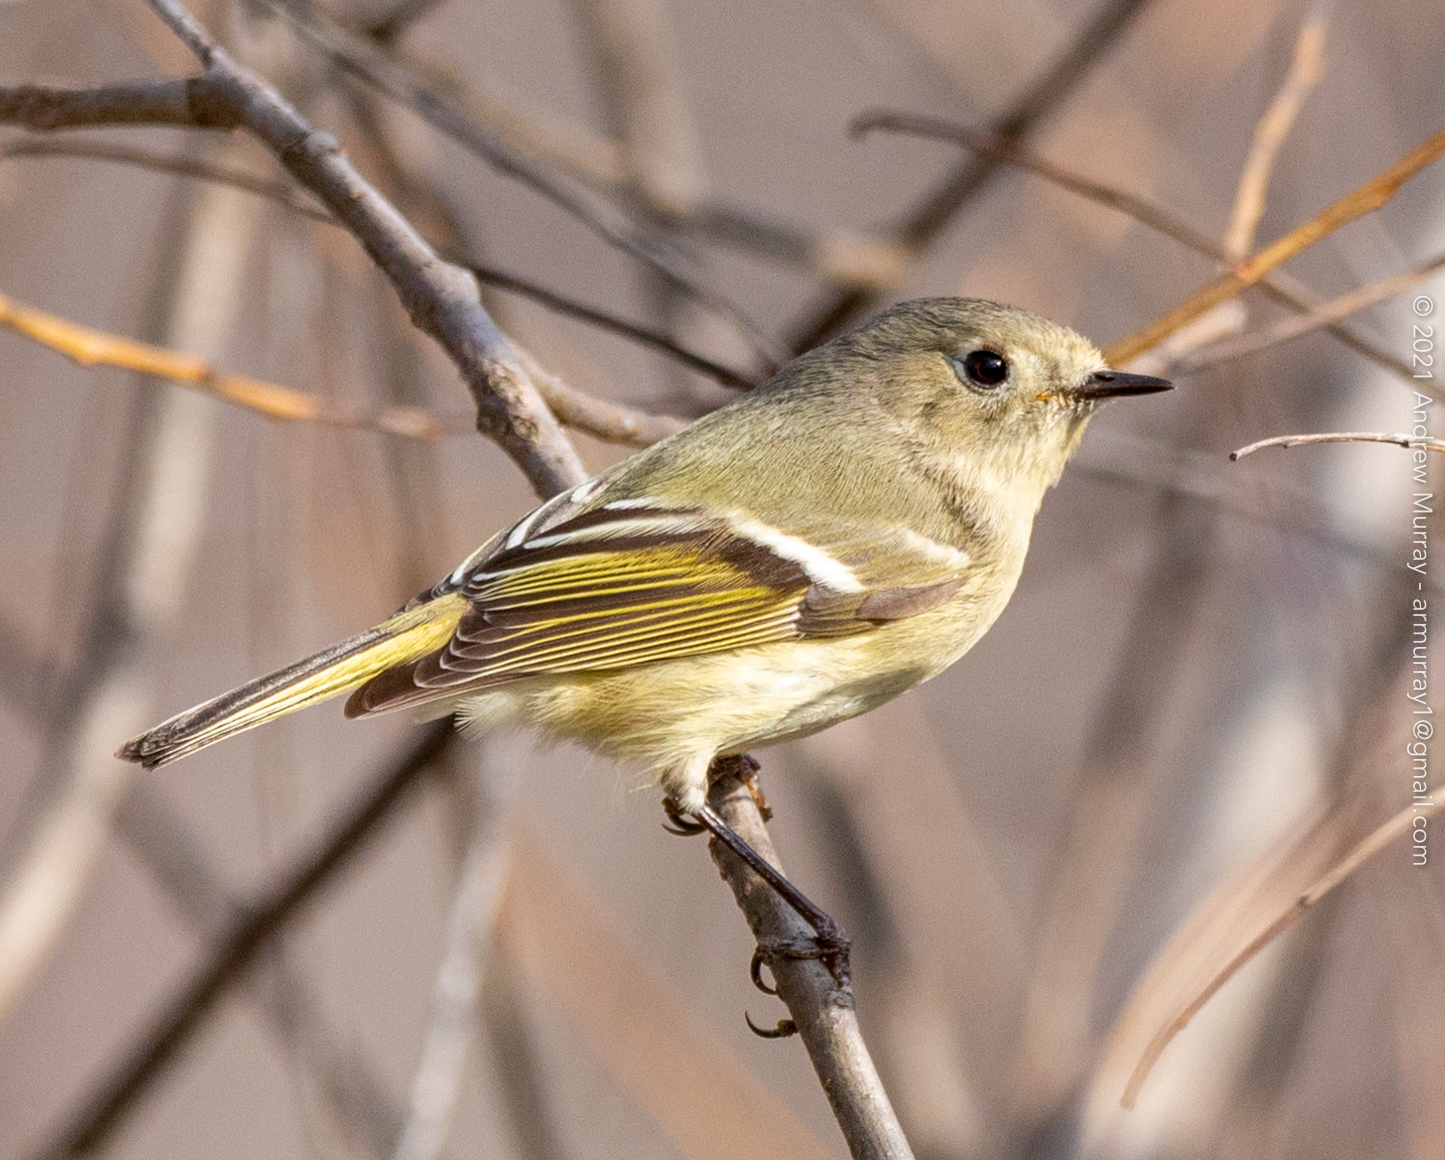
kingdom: Animalia
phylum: Chordata
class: Aves
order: Passeriformes
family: Regulidae
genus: Regulus
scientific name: Regulus calendula
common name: Ruby-crowned kinglet
